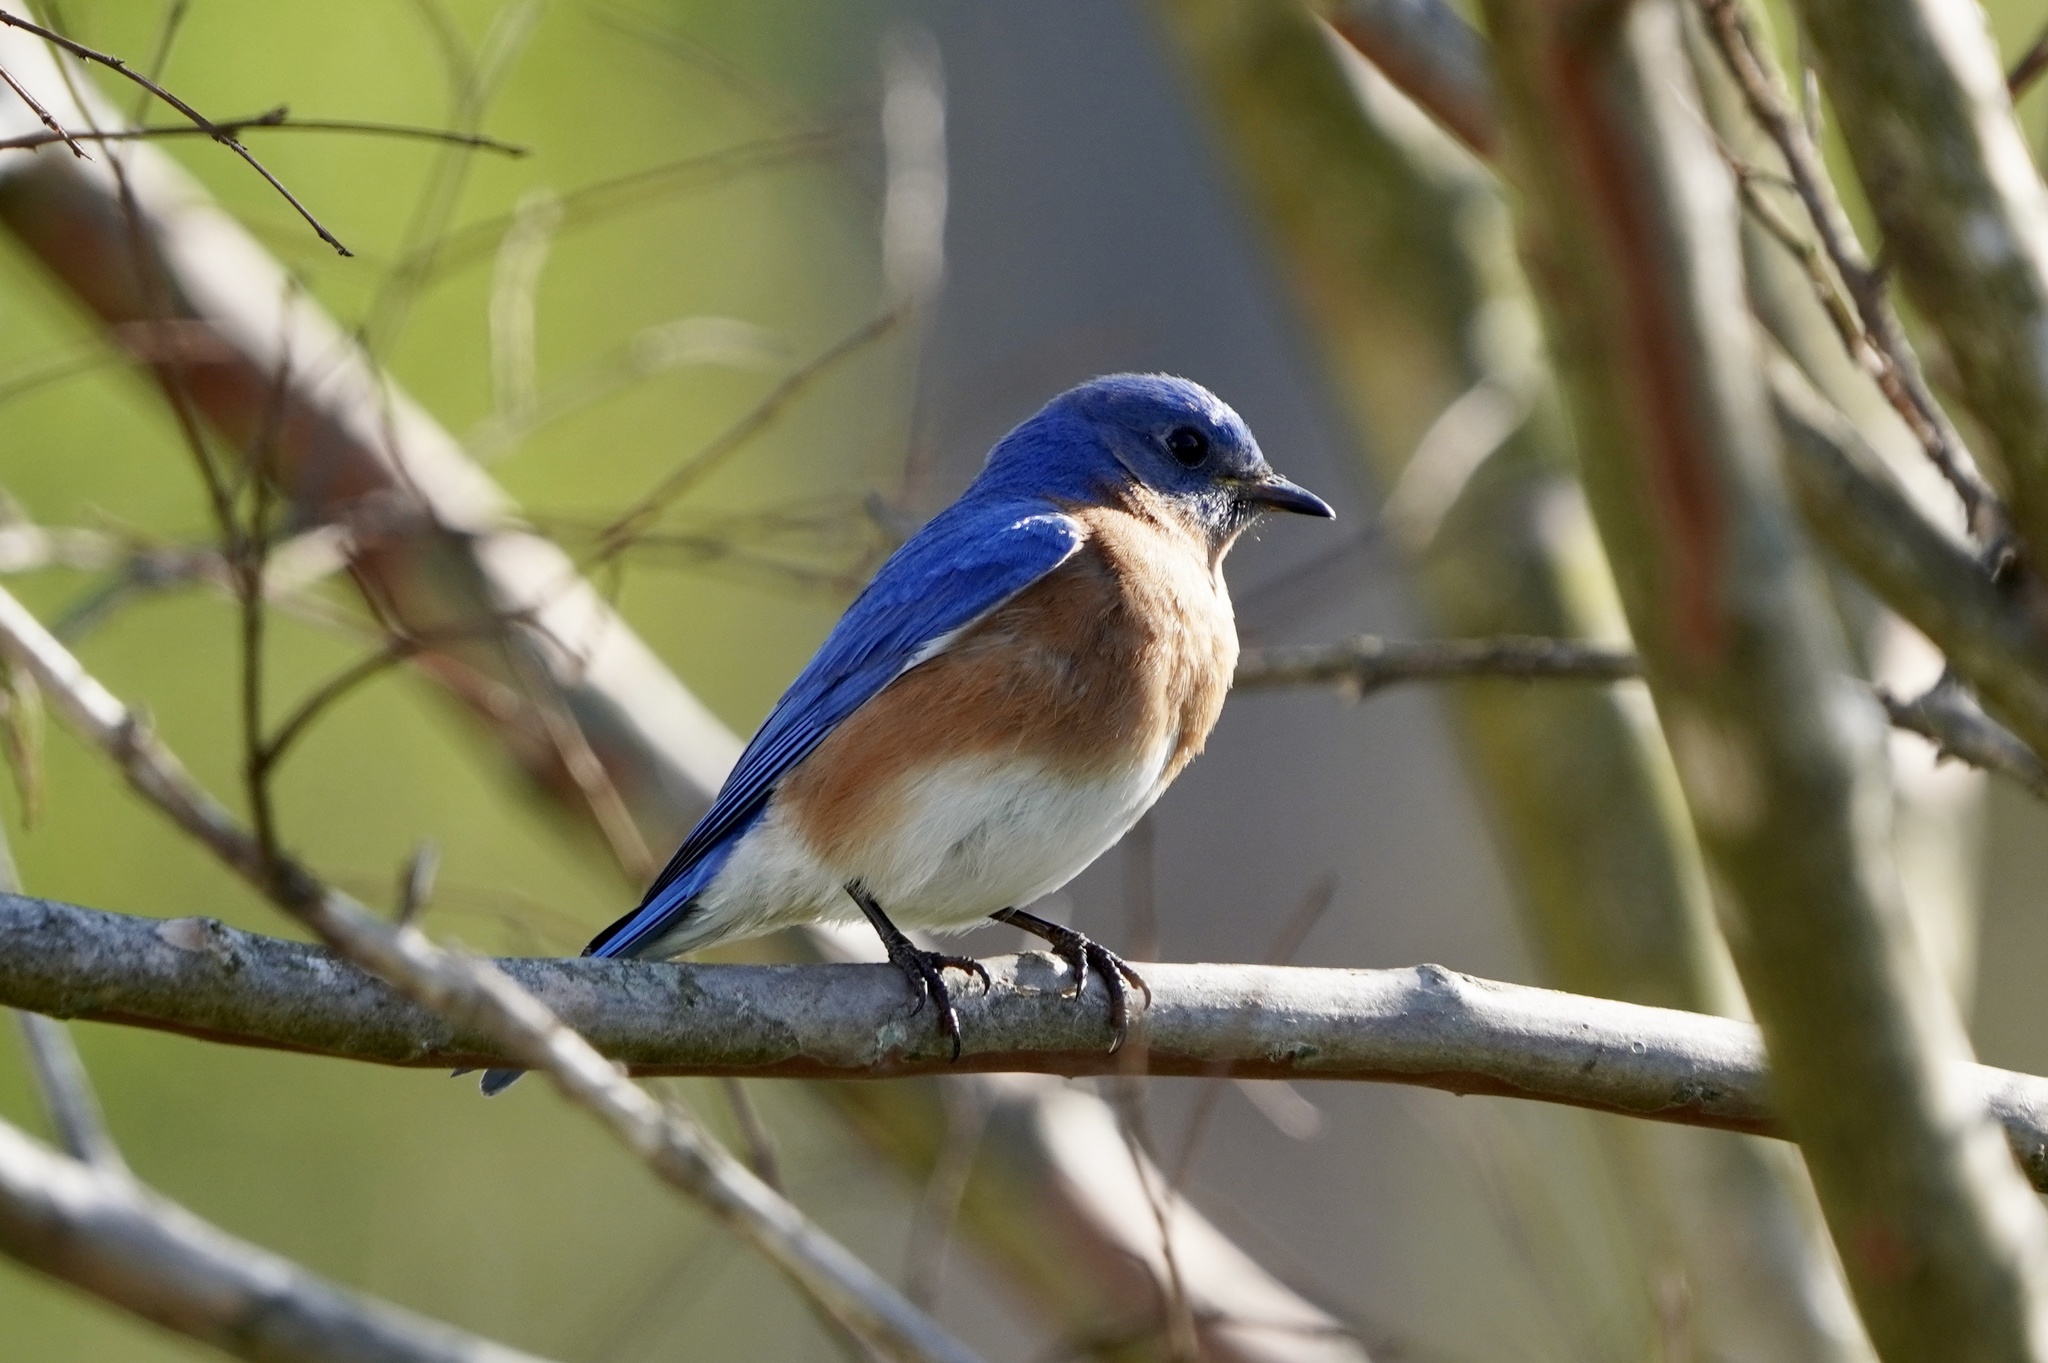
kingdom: Animalia
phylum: Chordata
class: Aves
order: Passeriformes
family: Turdidae
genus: Sialia
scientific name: Sialia sialis
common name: Eastern bluebird
